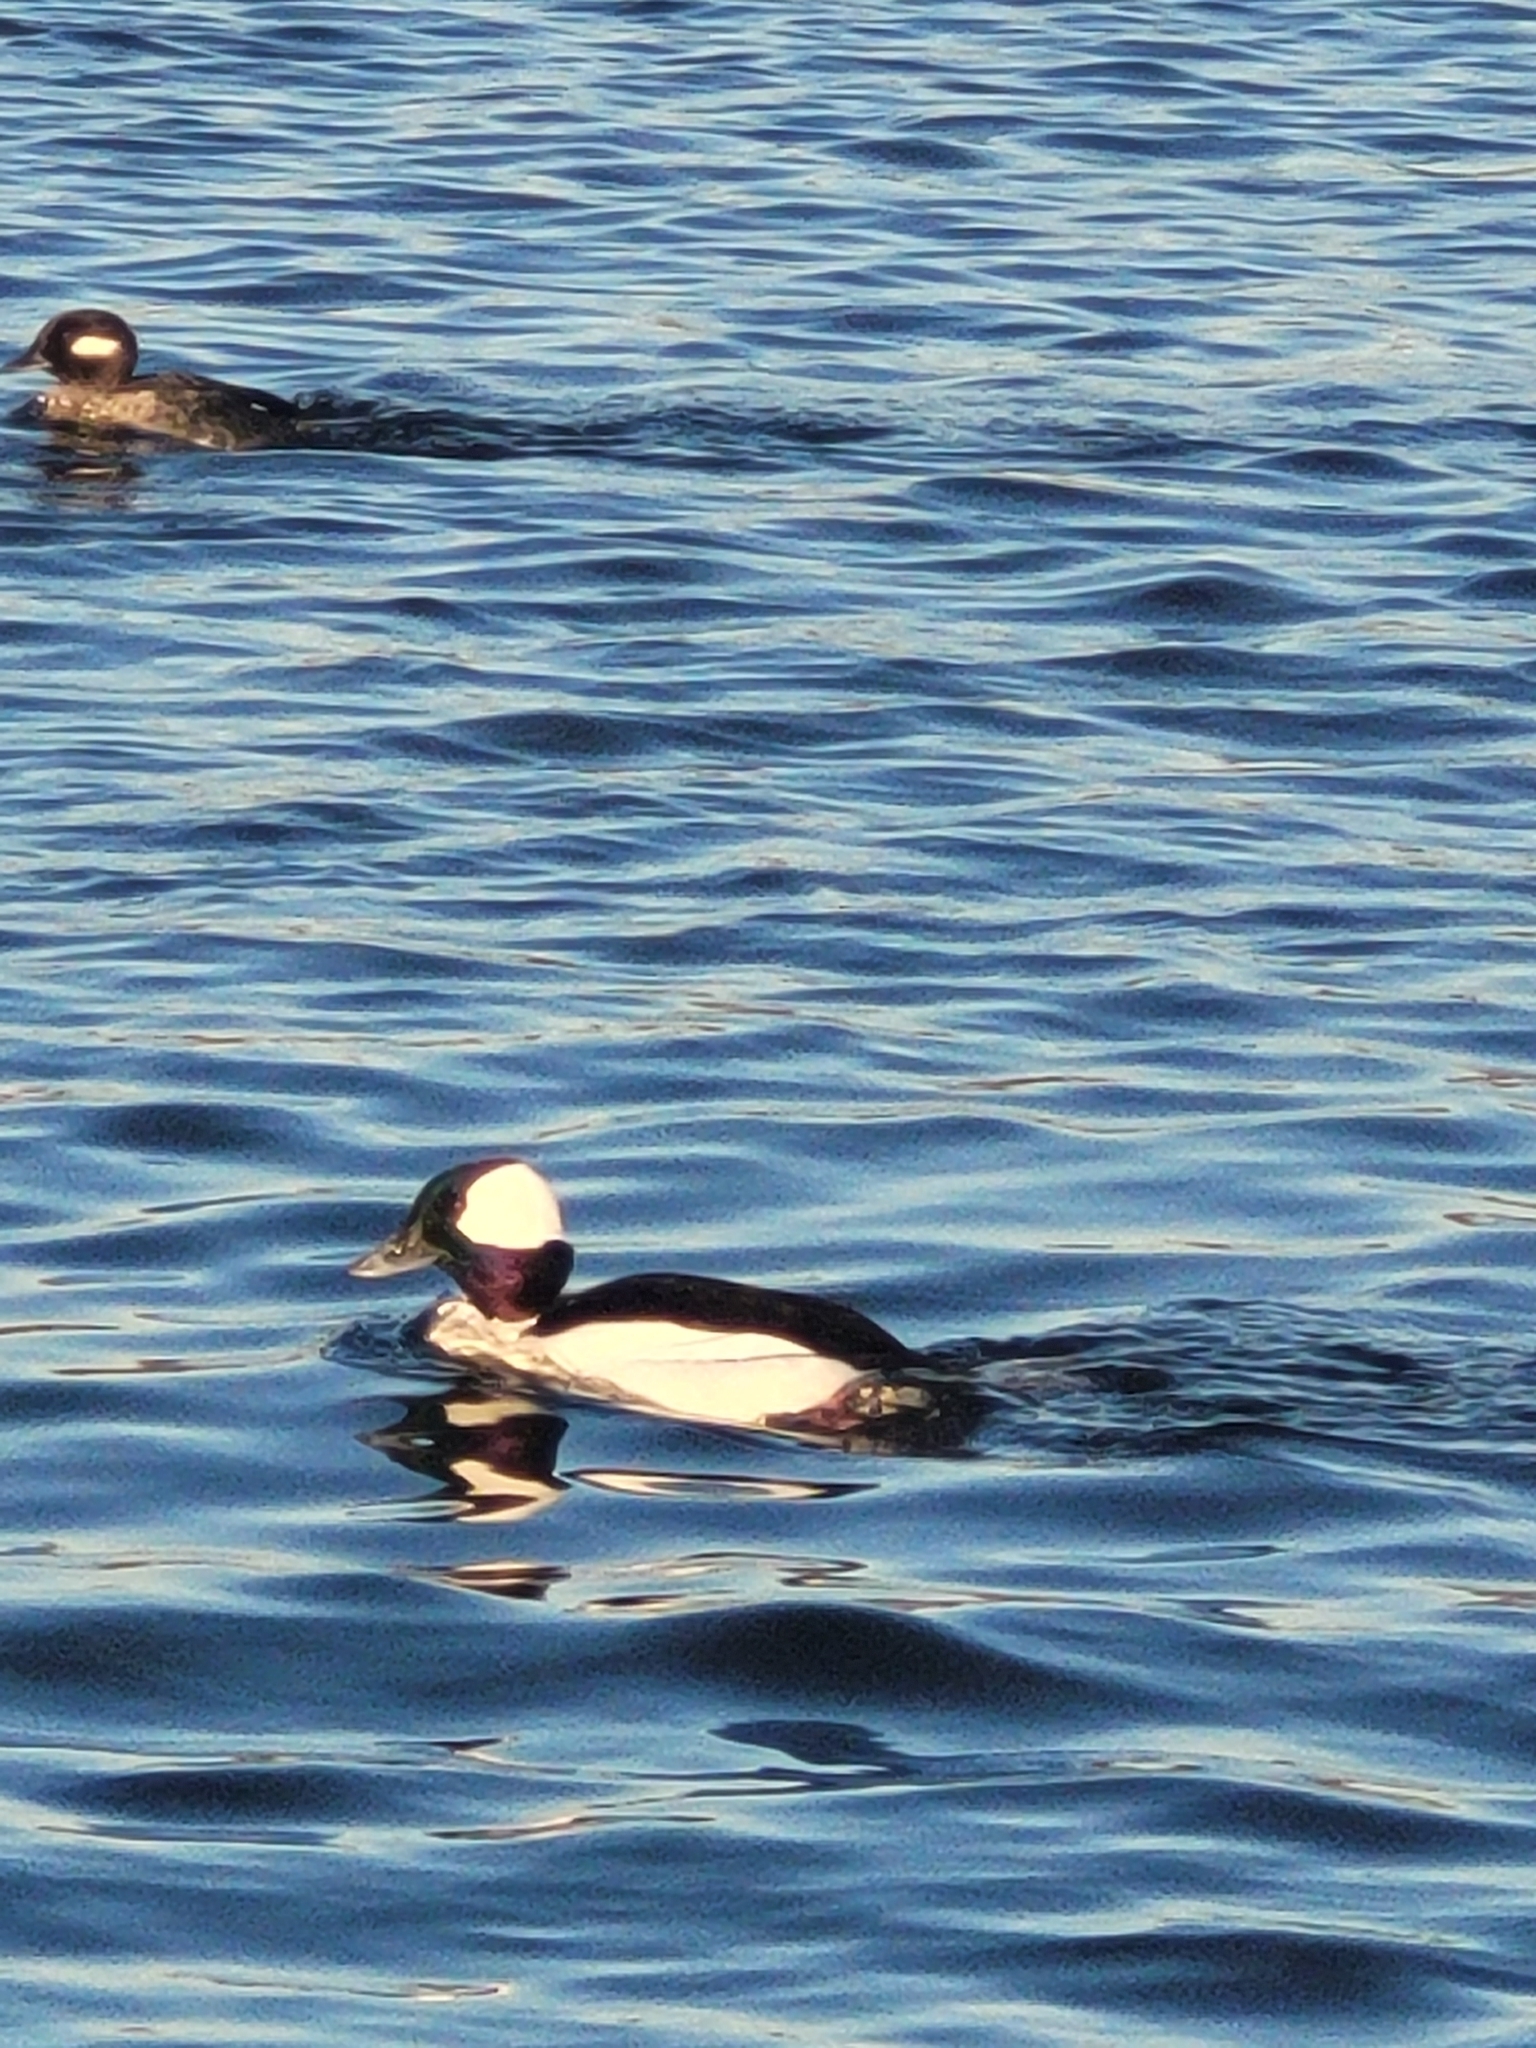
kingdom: Animalia
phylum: Chordata
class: Aves
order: Anseriformes
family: Anatidae
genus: Bucephala
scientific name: Bucephala albeola
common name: Bufflehead
